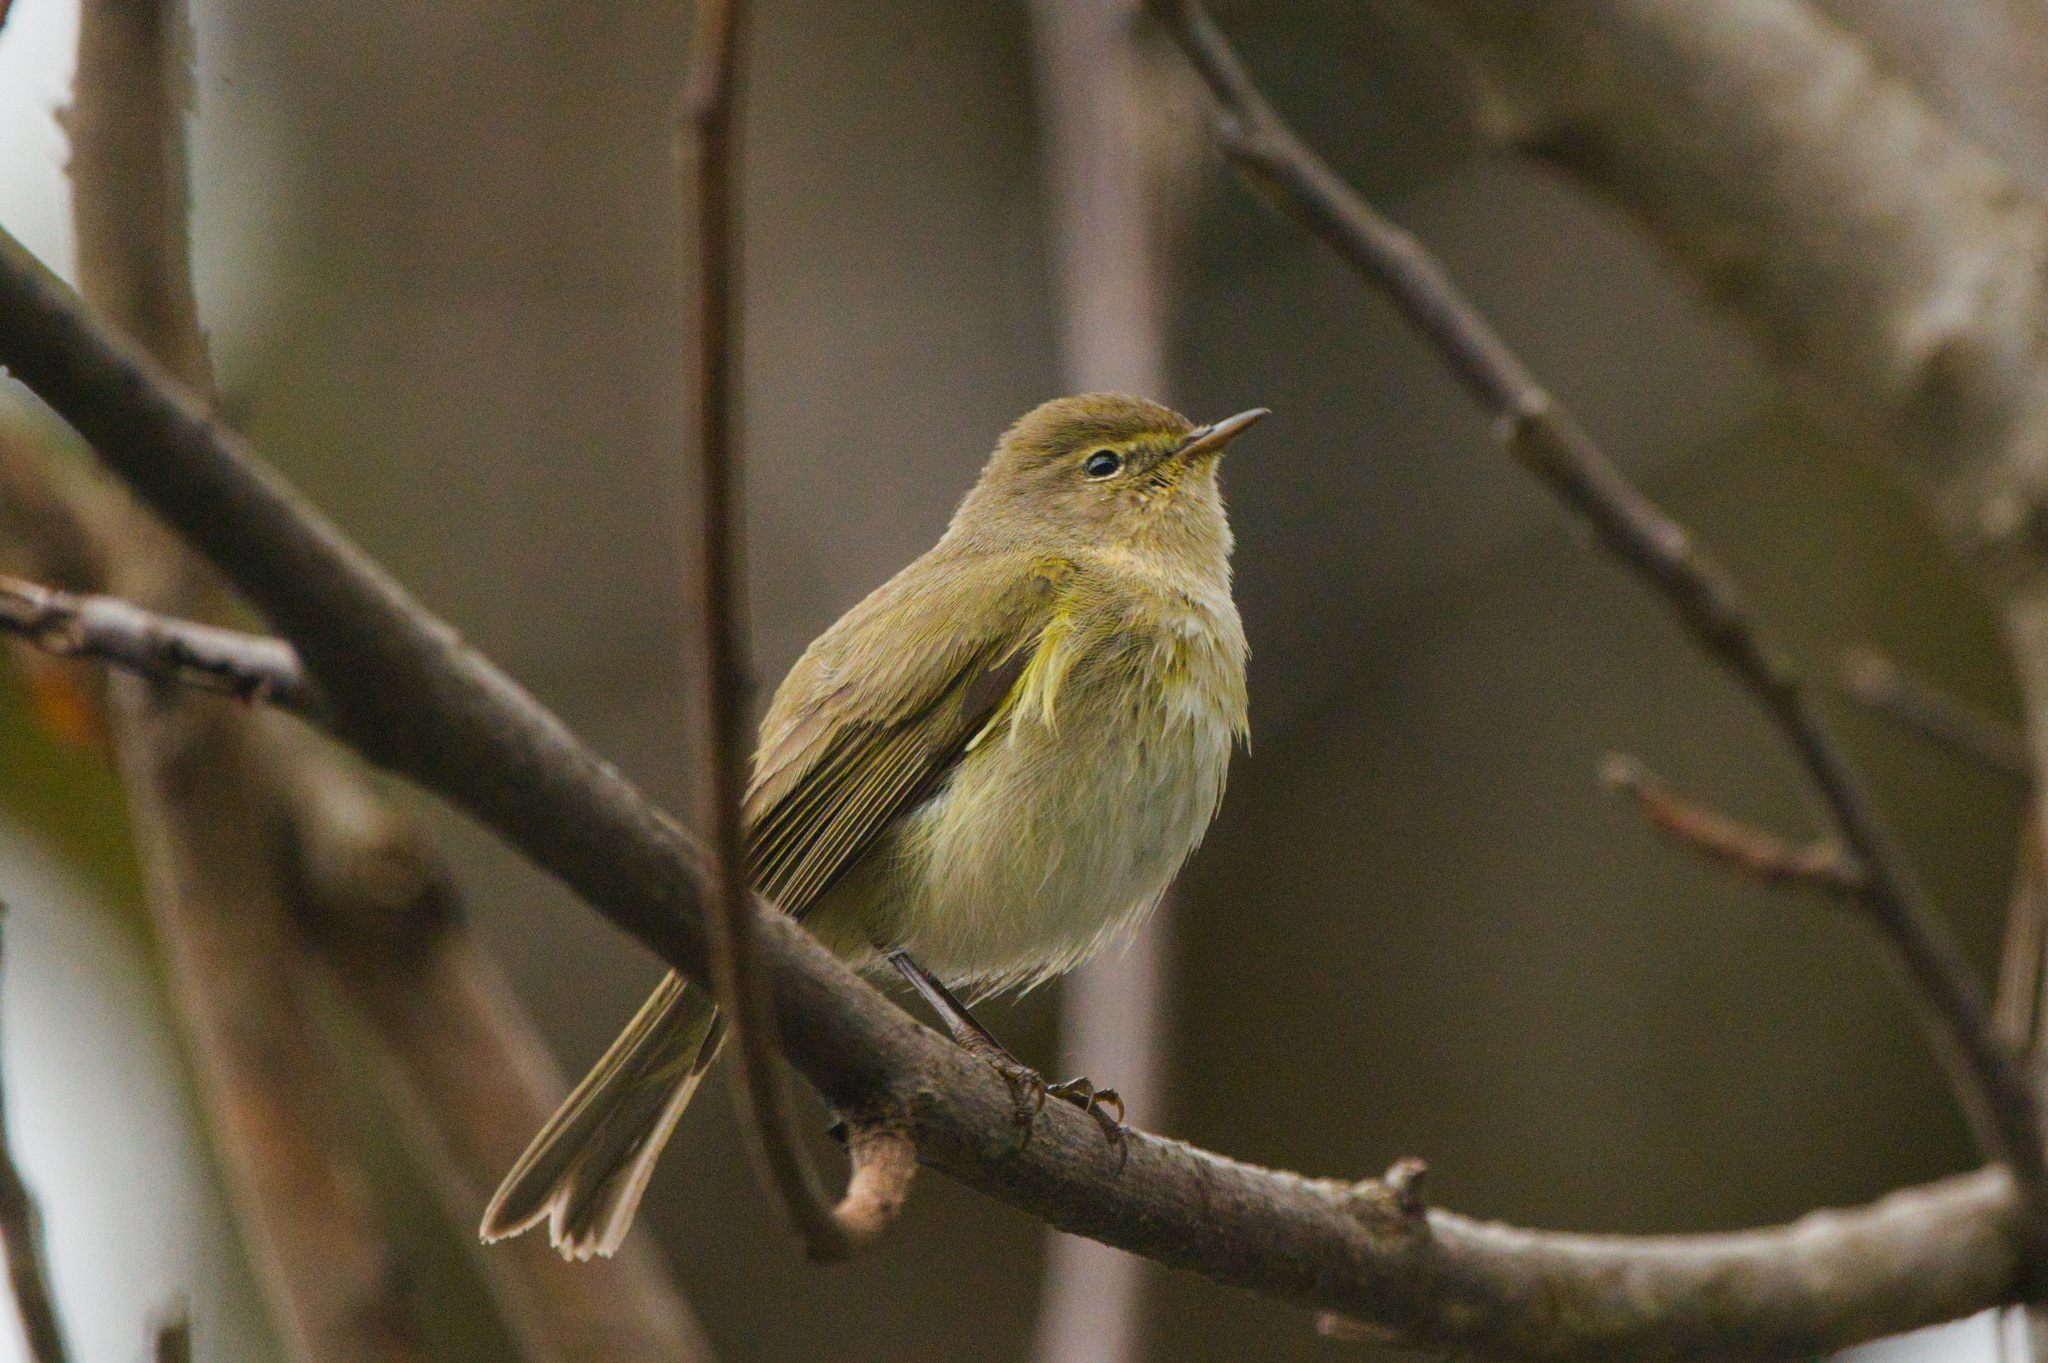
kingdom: Animalia
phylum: Chordata
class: Aves
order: Passeriformes
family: Phylloscopidae
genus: Phylloscopus
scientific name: Phylloscopus collybita
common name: Common chiffchaff
